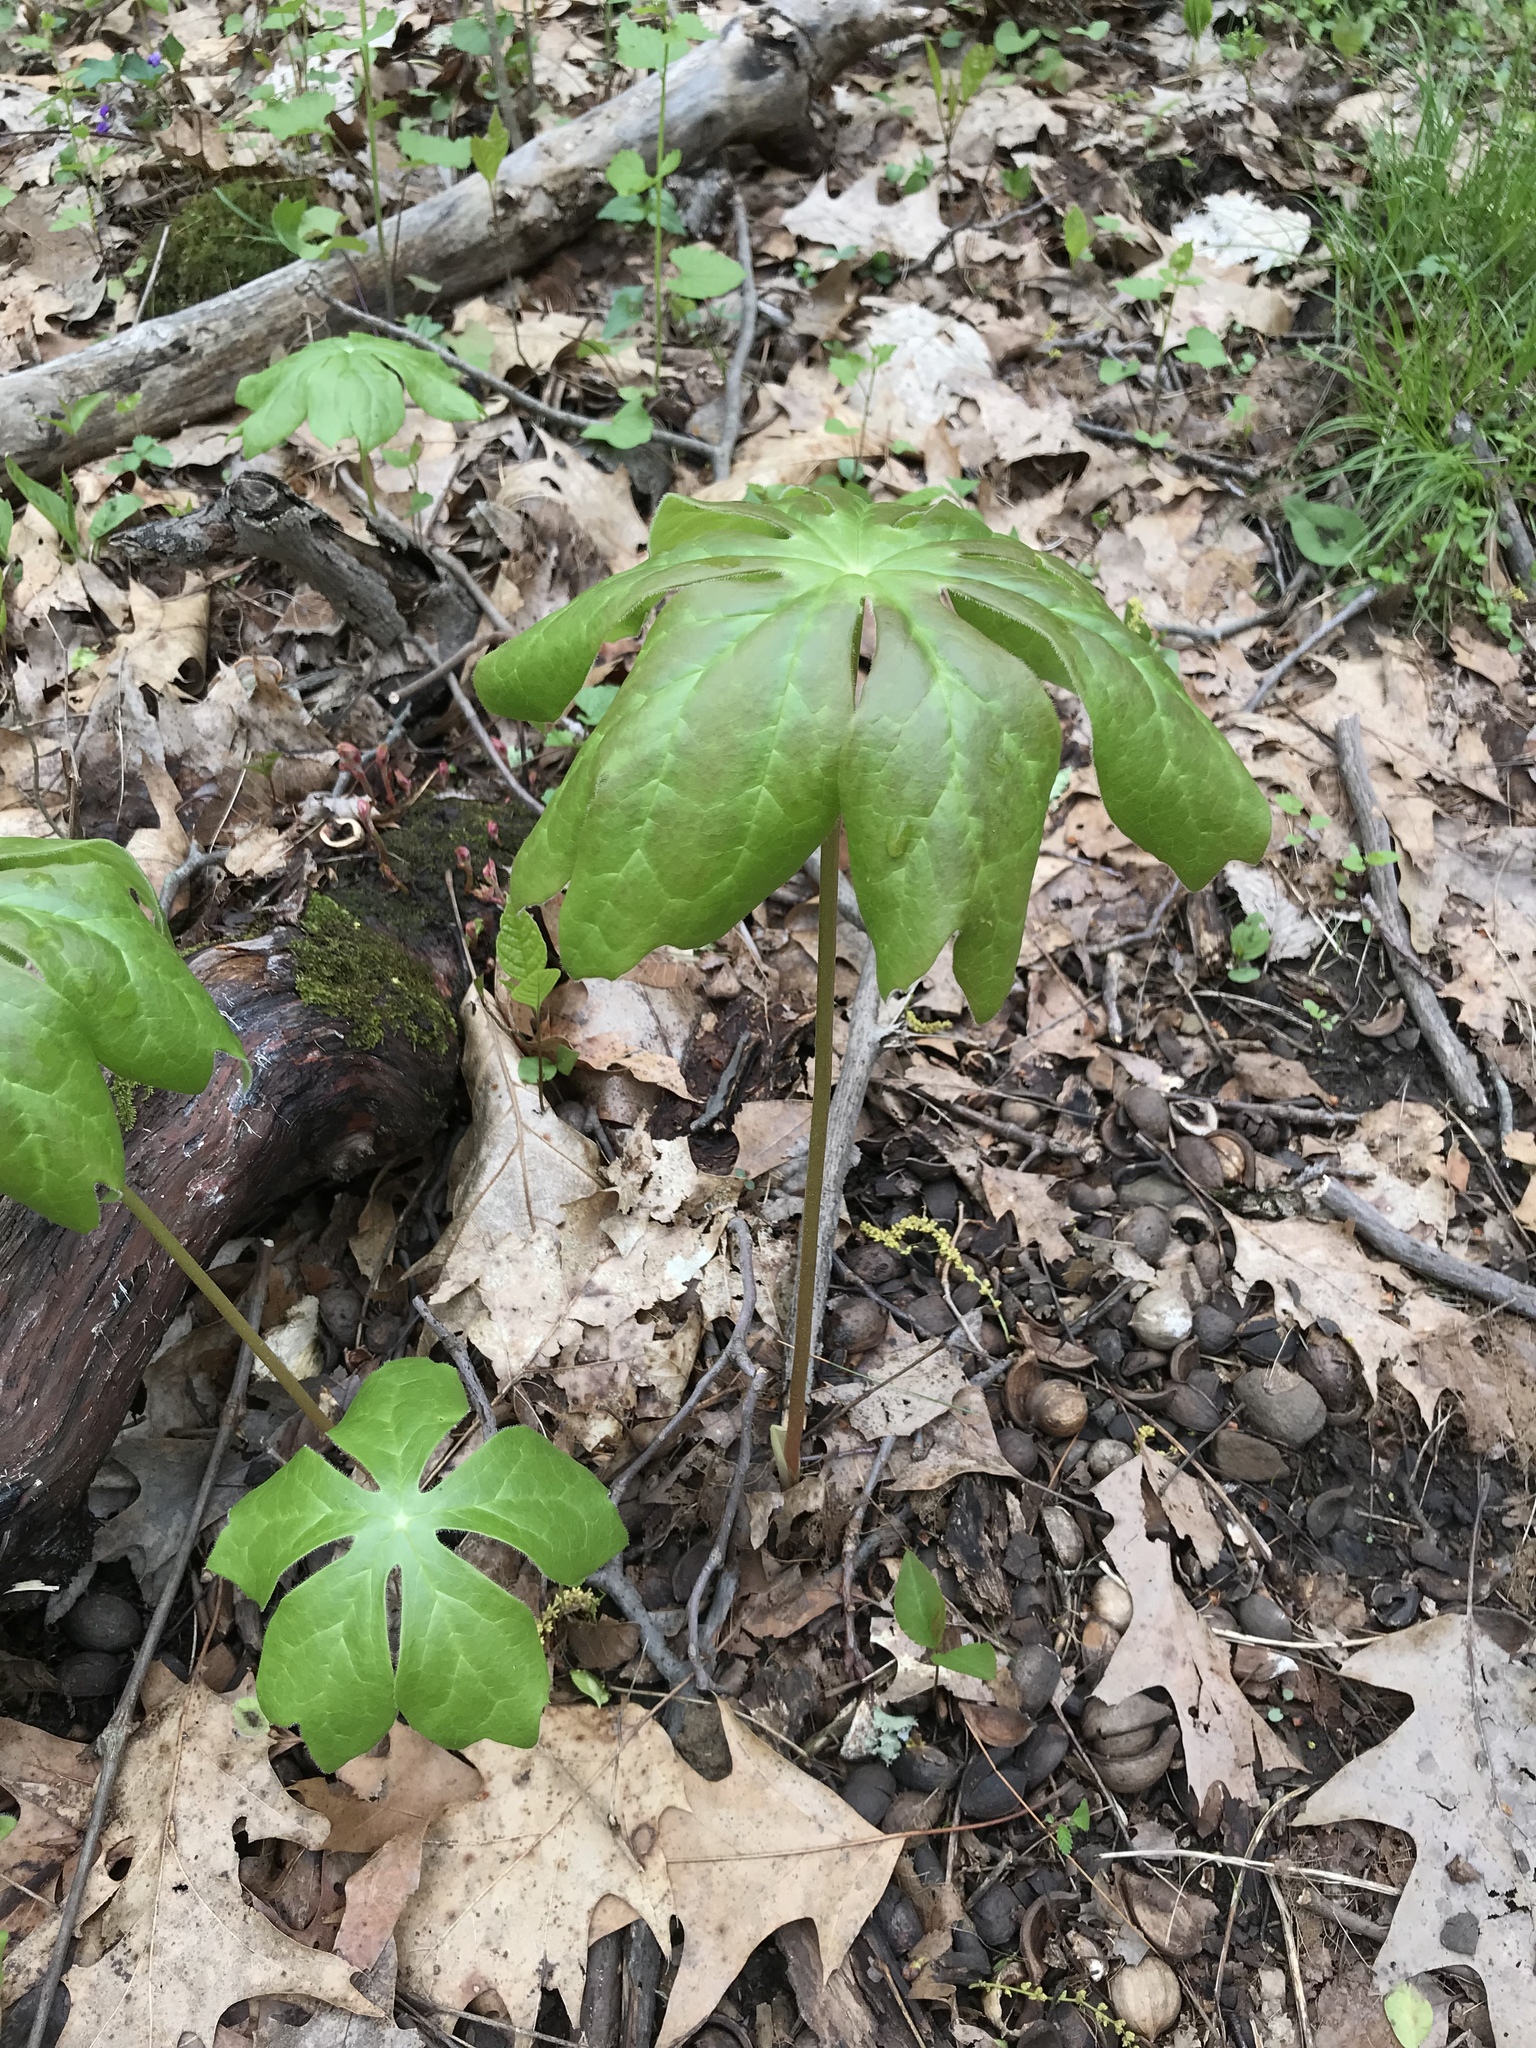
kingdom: Plantae
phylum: Tracheophyta
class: Magnoliopsida
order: Ranunculales
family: Berberidaceae
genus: Podophyllum
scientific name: Podophyllum peltatum
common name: Wild mandrake
